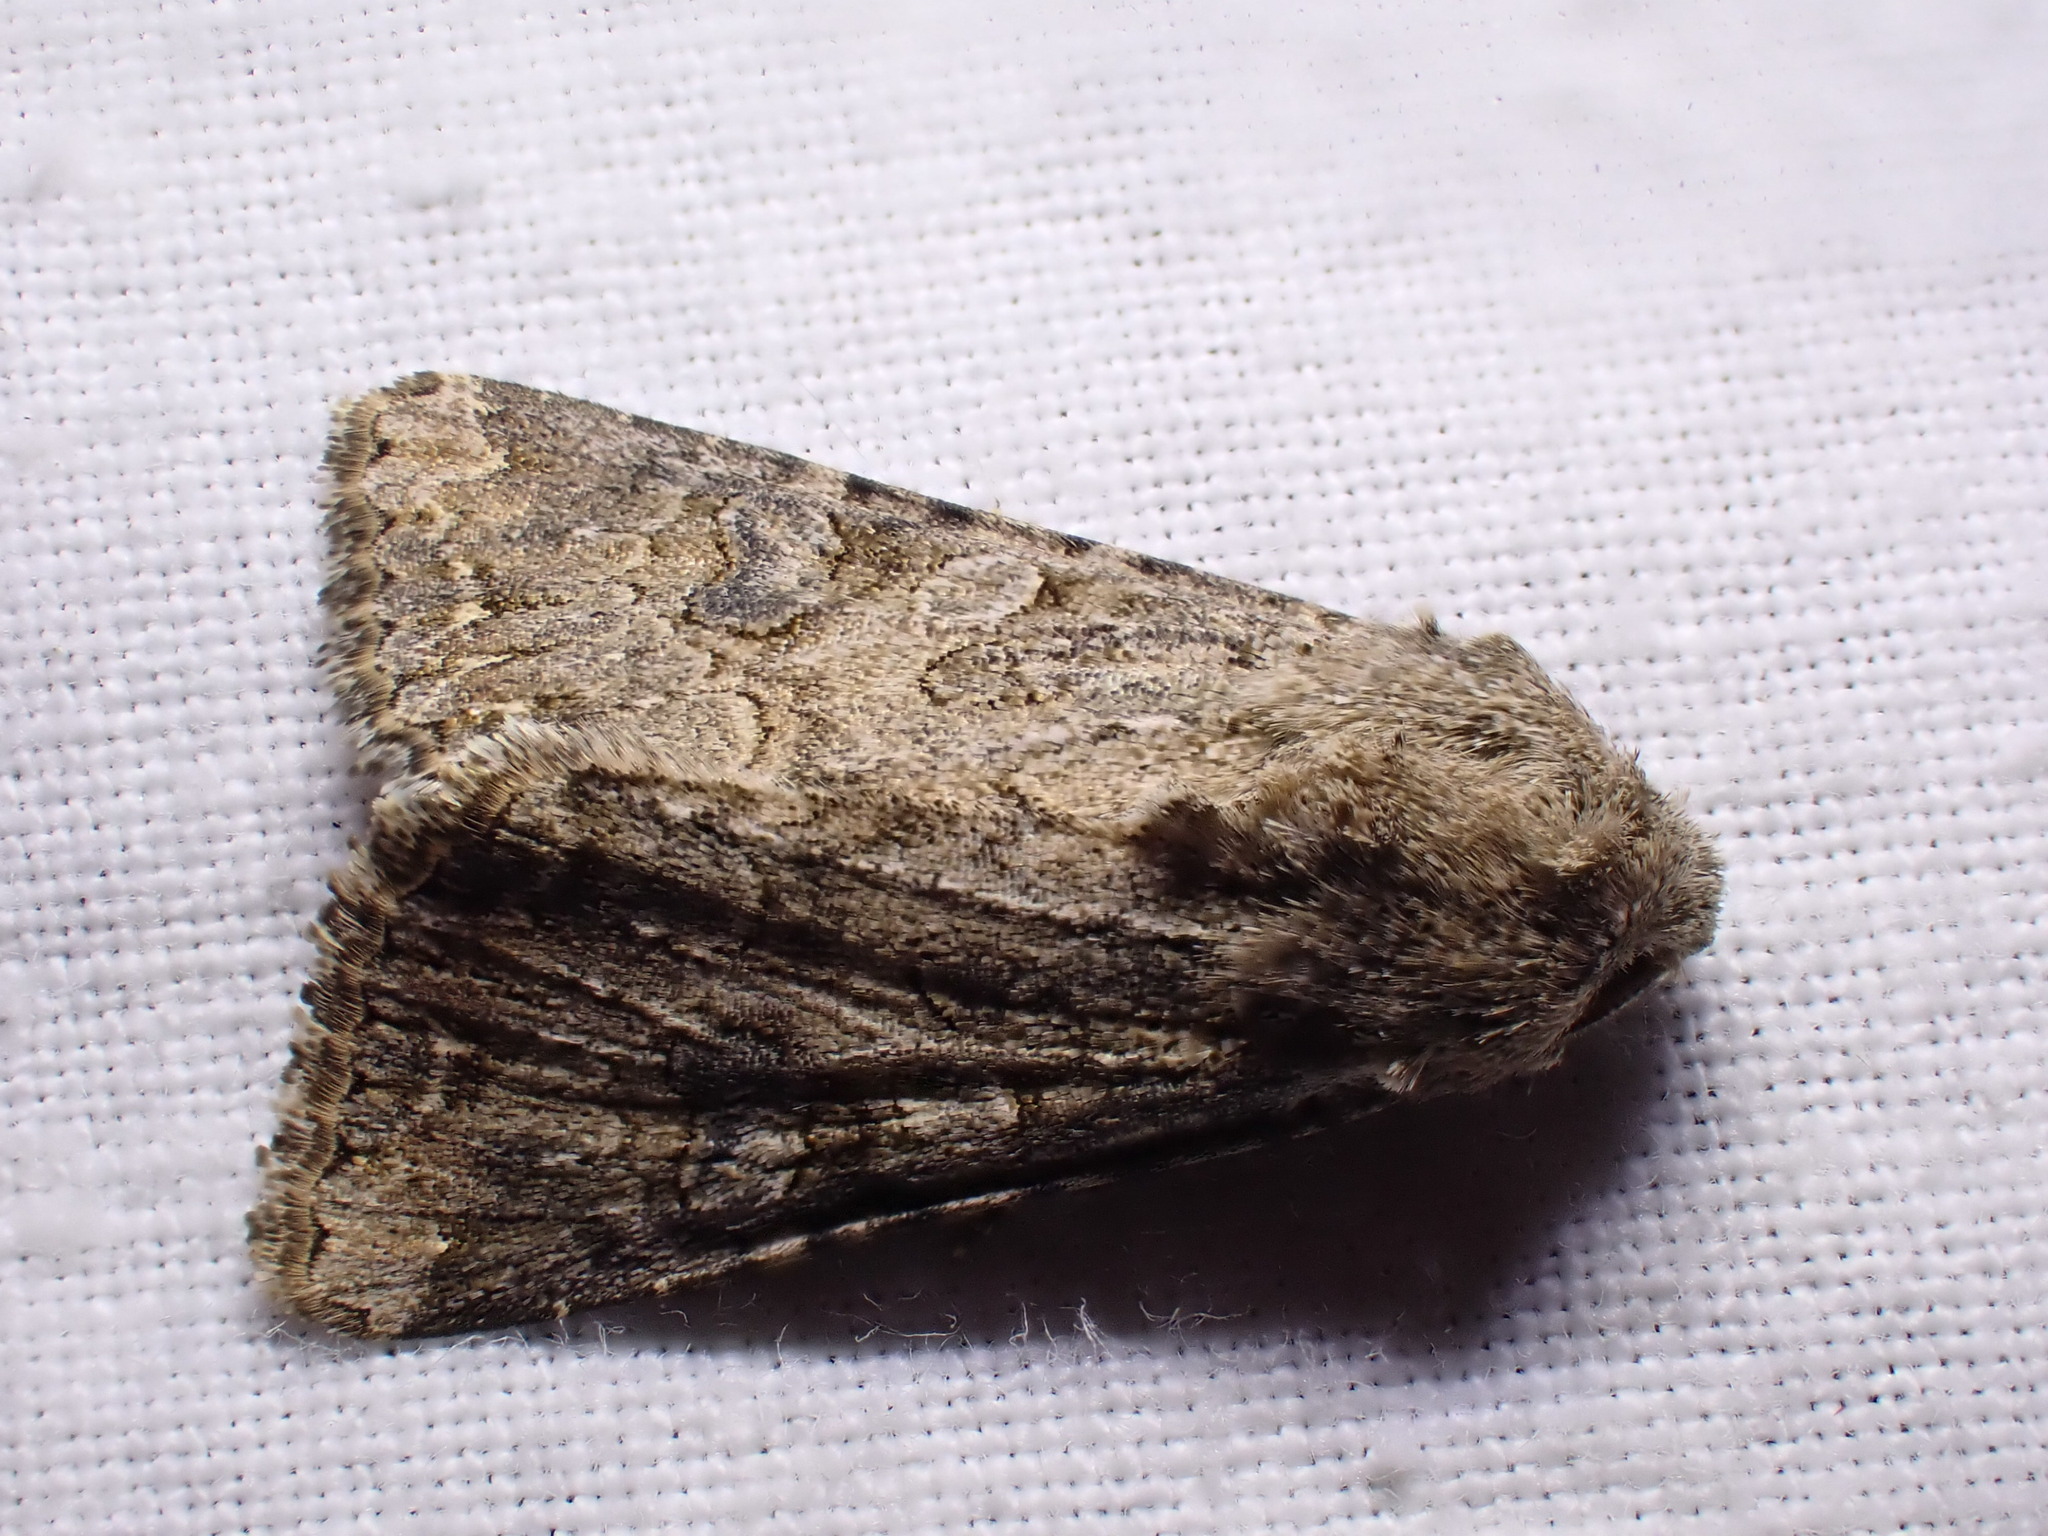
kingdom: Animalia
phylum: Arthropoda
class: Insecta
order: Lepidoptera
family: Noctuidae
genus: Anarta
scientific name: Anarta trifolii
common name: Clover cutworm moth
